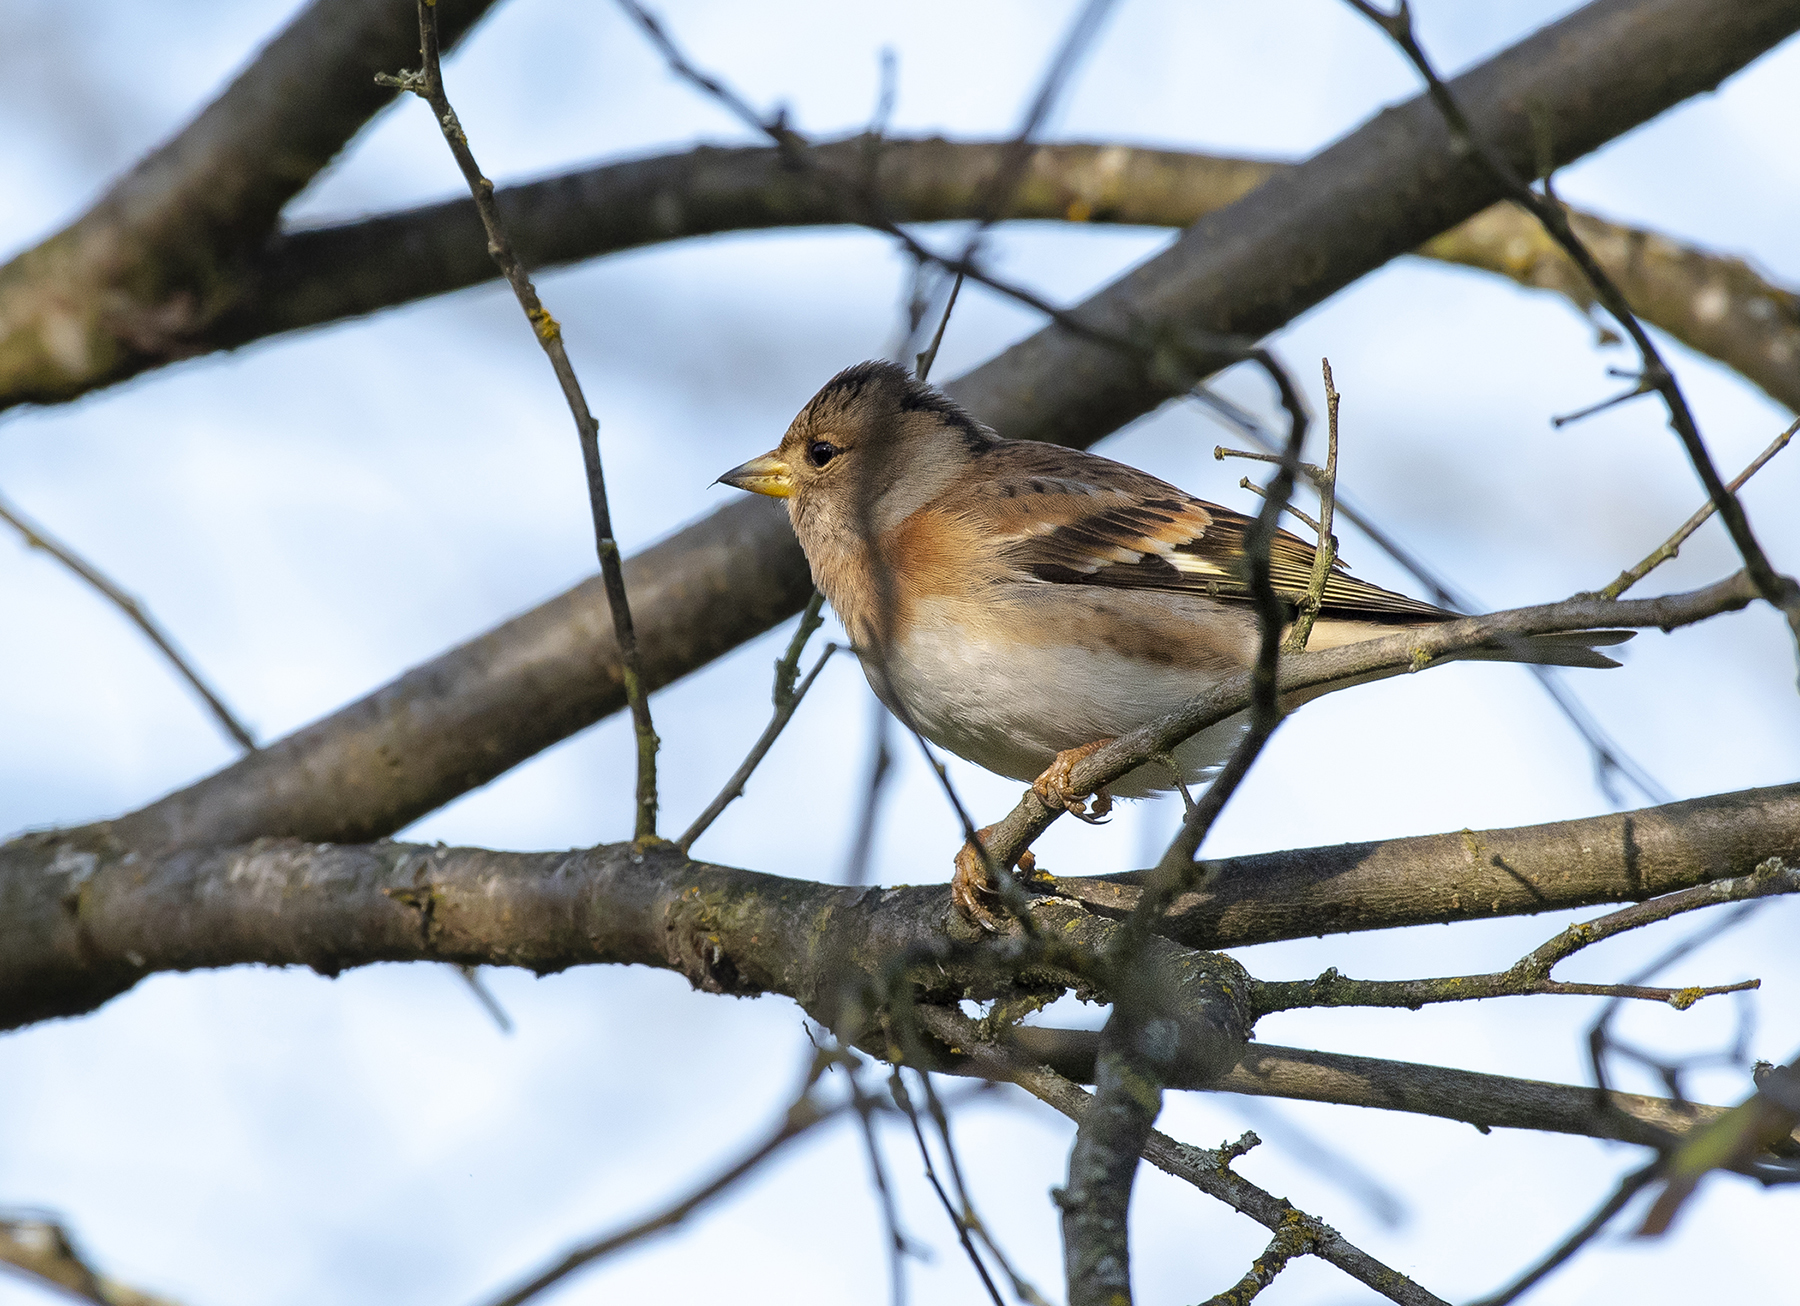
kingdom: Animalia
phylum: Chordata
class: Aves
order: Passeriformes
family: Fringillidae
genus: Fringilla
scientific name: Fringilla montifringilla
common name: Brambling
